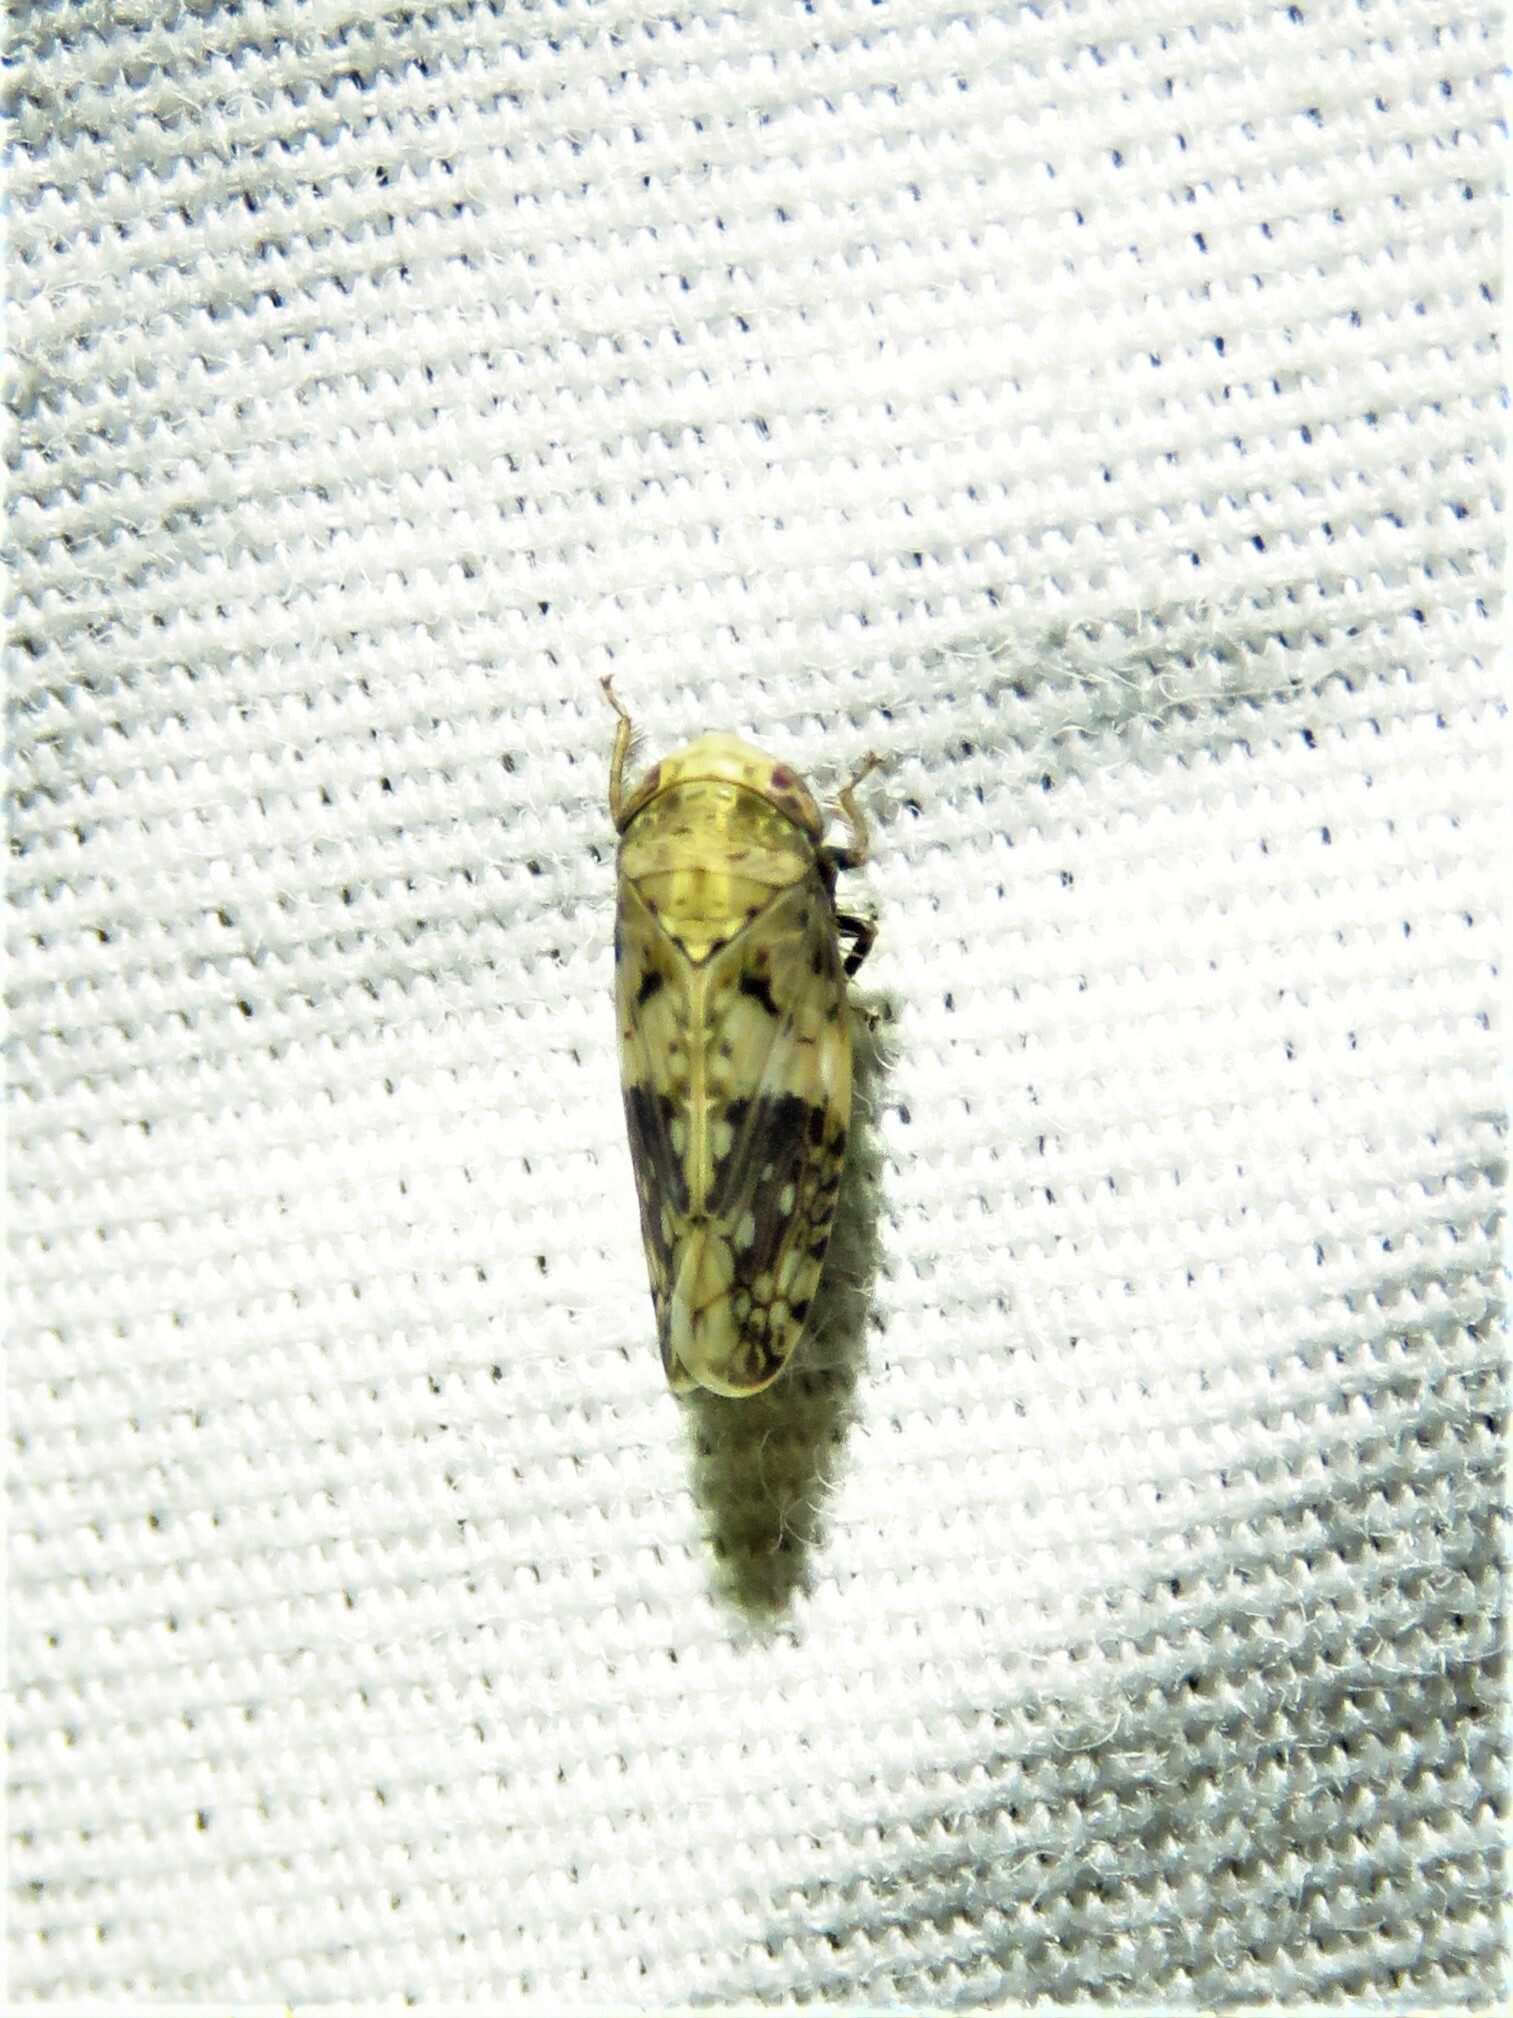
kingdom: Animalia
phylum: Arthropoda
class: Insecta
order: Hemiptera
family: Cicadellidae
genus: Menosoma
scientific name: Menosoma cinctum
